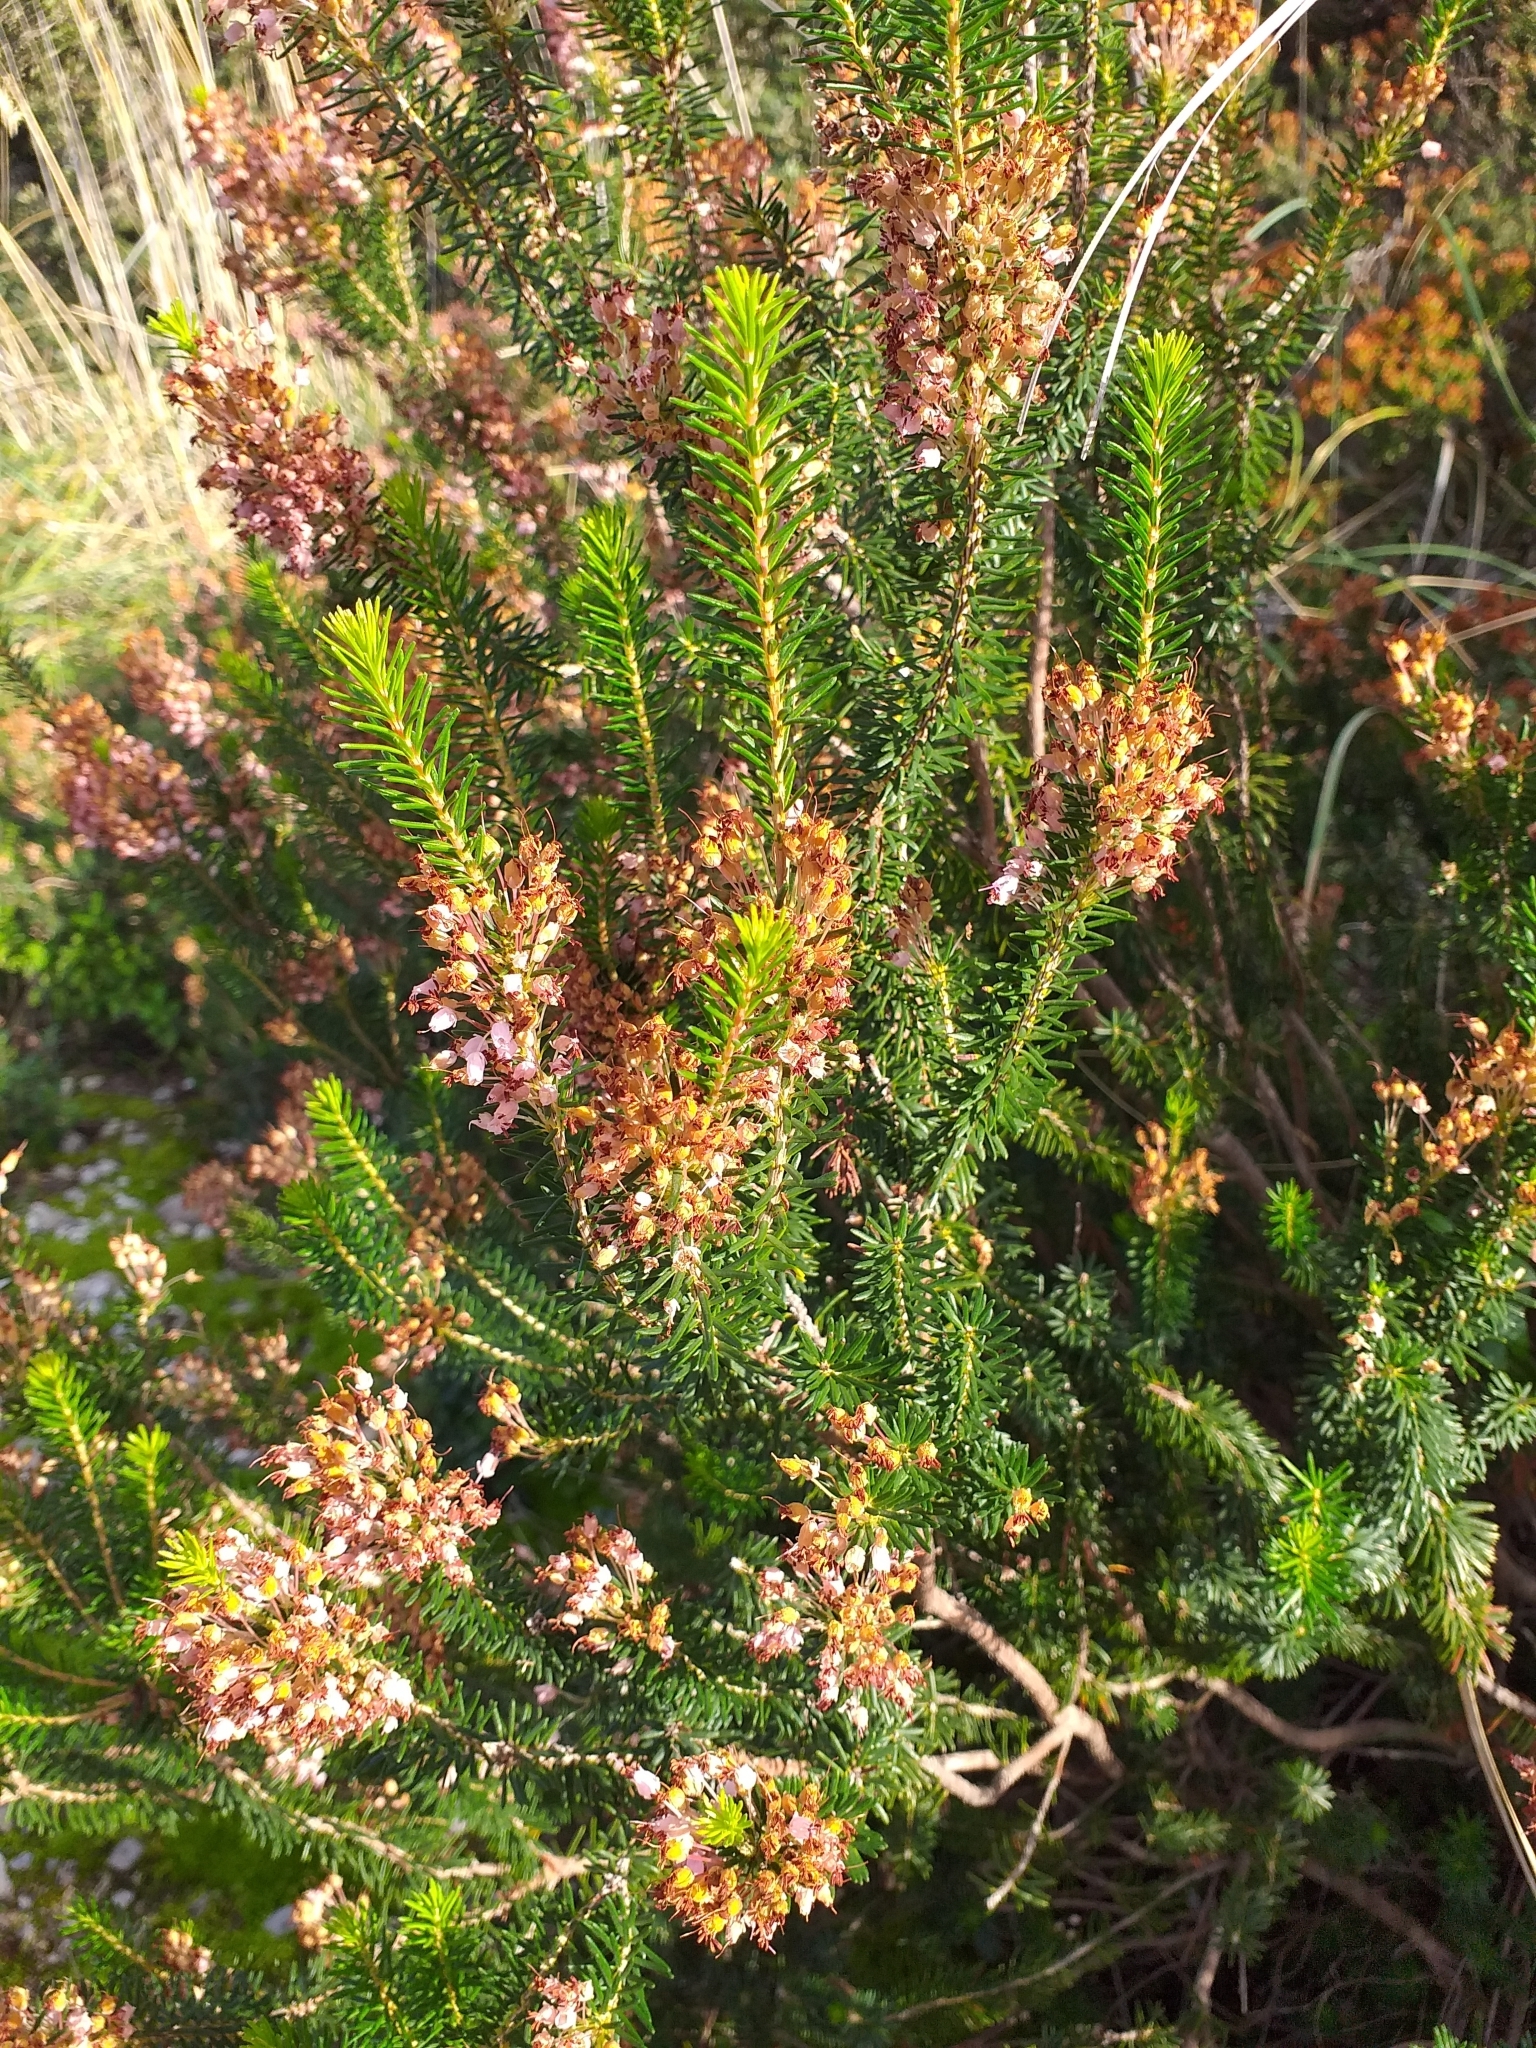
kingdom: Plantae
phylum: Tracheophyta
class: Magnoliopsida
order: Ericales
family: Ericaceae
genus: Erica
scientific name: Erica multiflora
